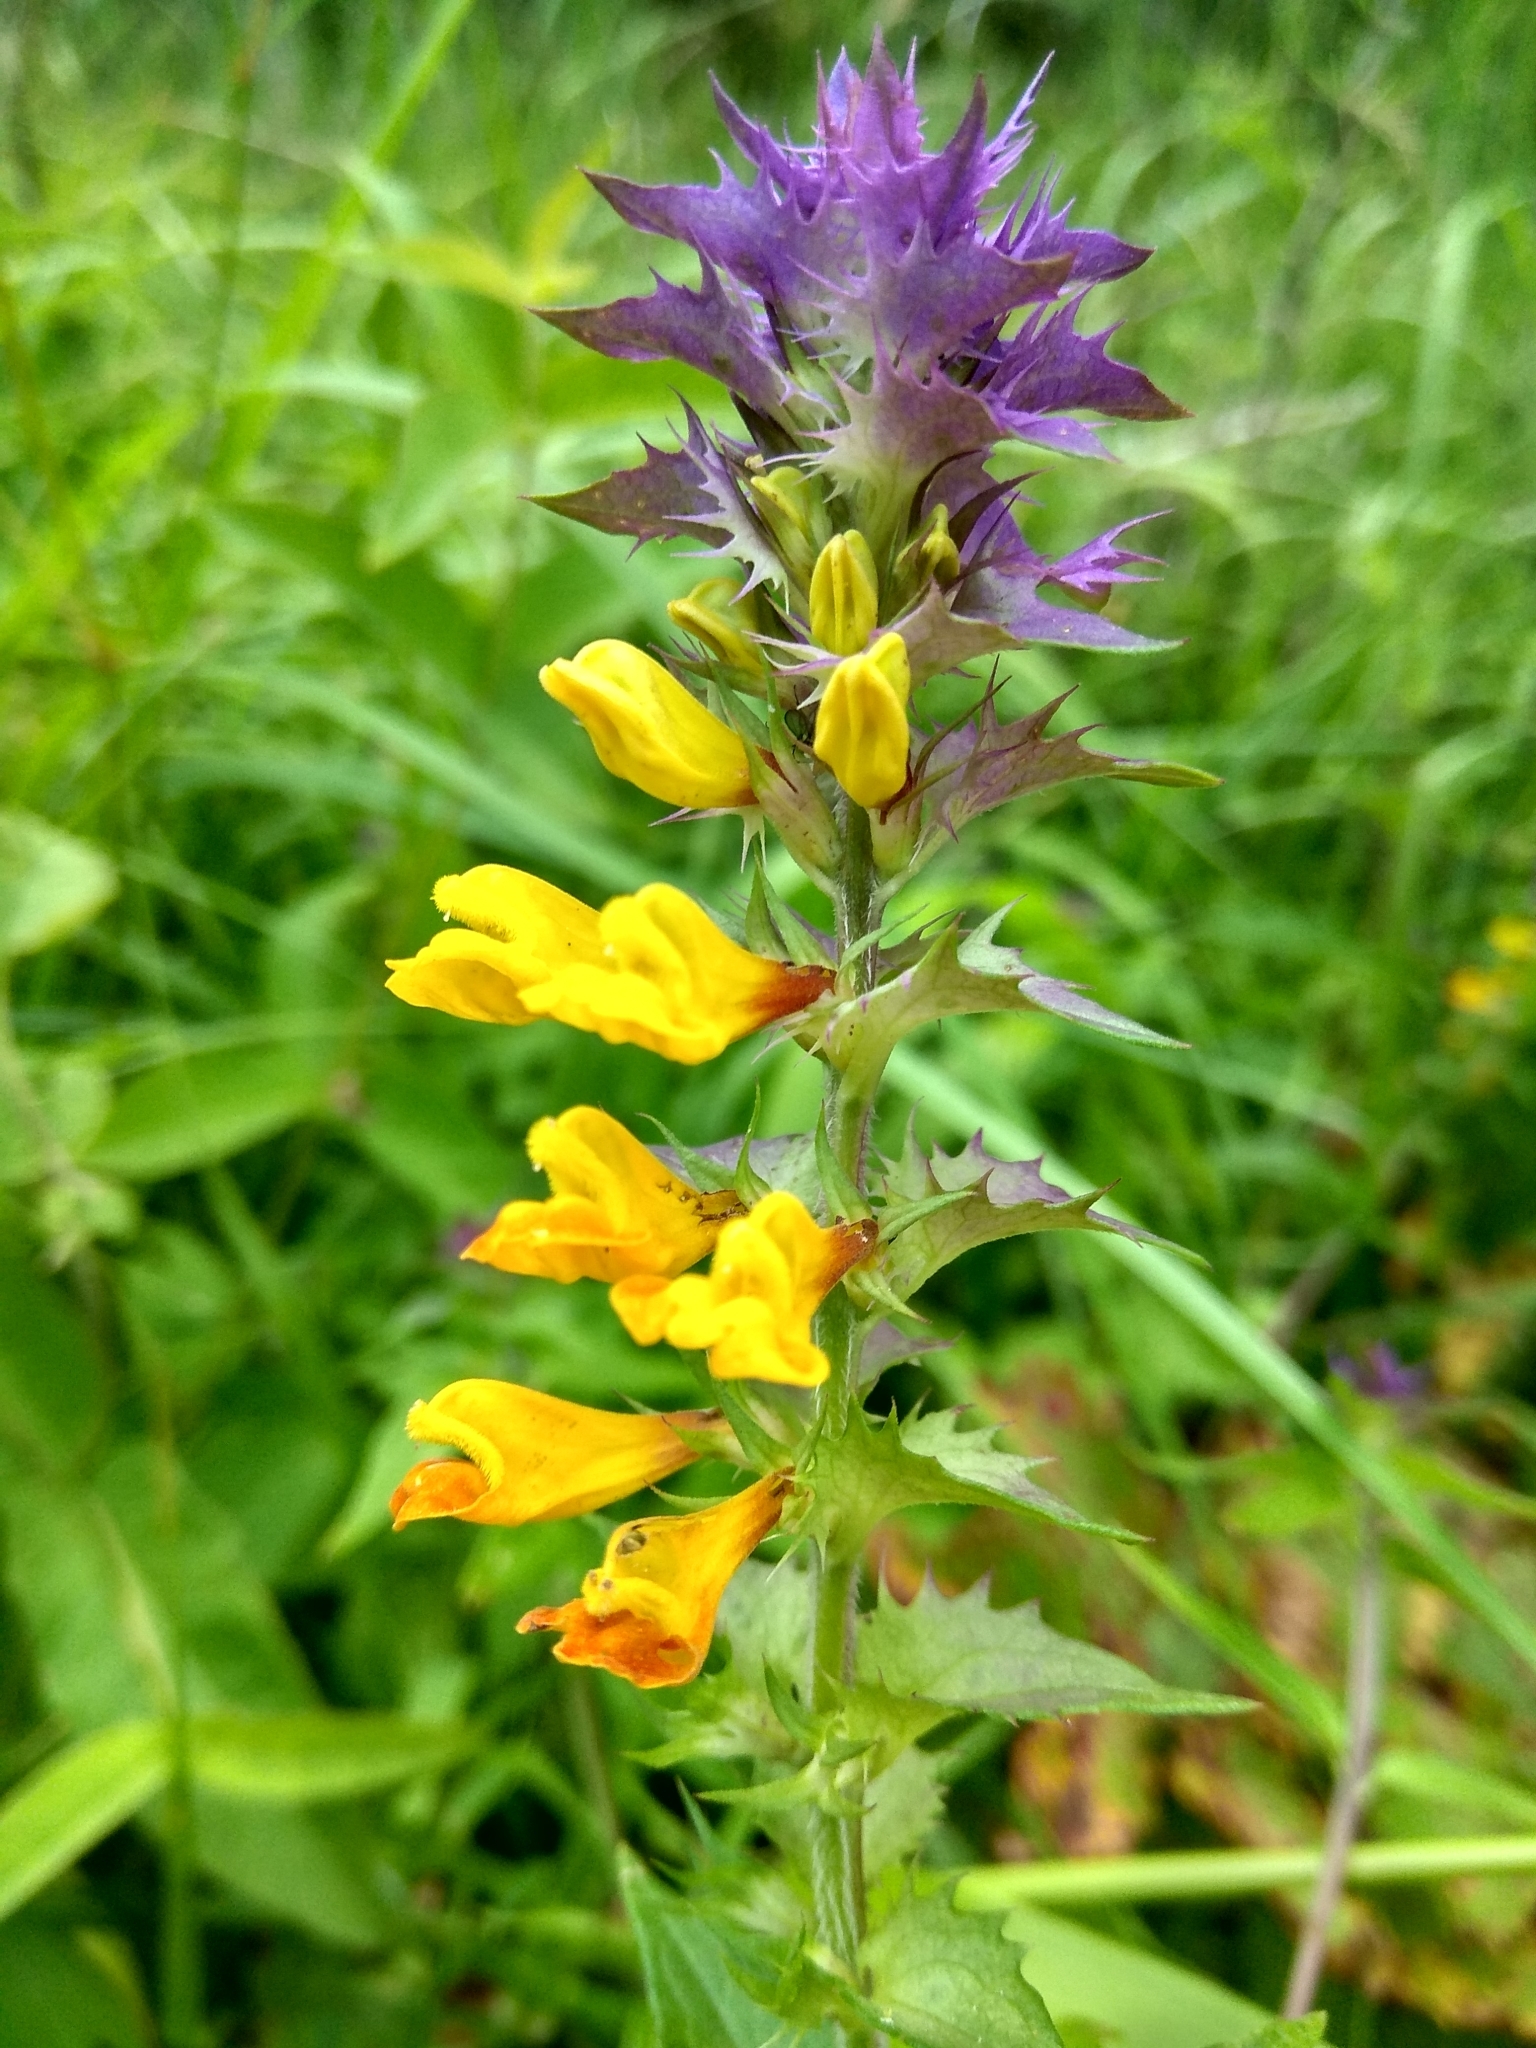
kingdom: Plantae
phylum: Tracheophyta
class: Magnoliopsida
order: Lamiales
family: Orobanchaceae
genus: Melampyrum
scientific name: Melampyrum nemorosum
